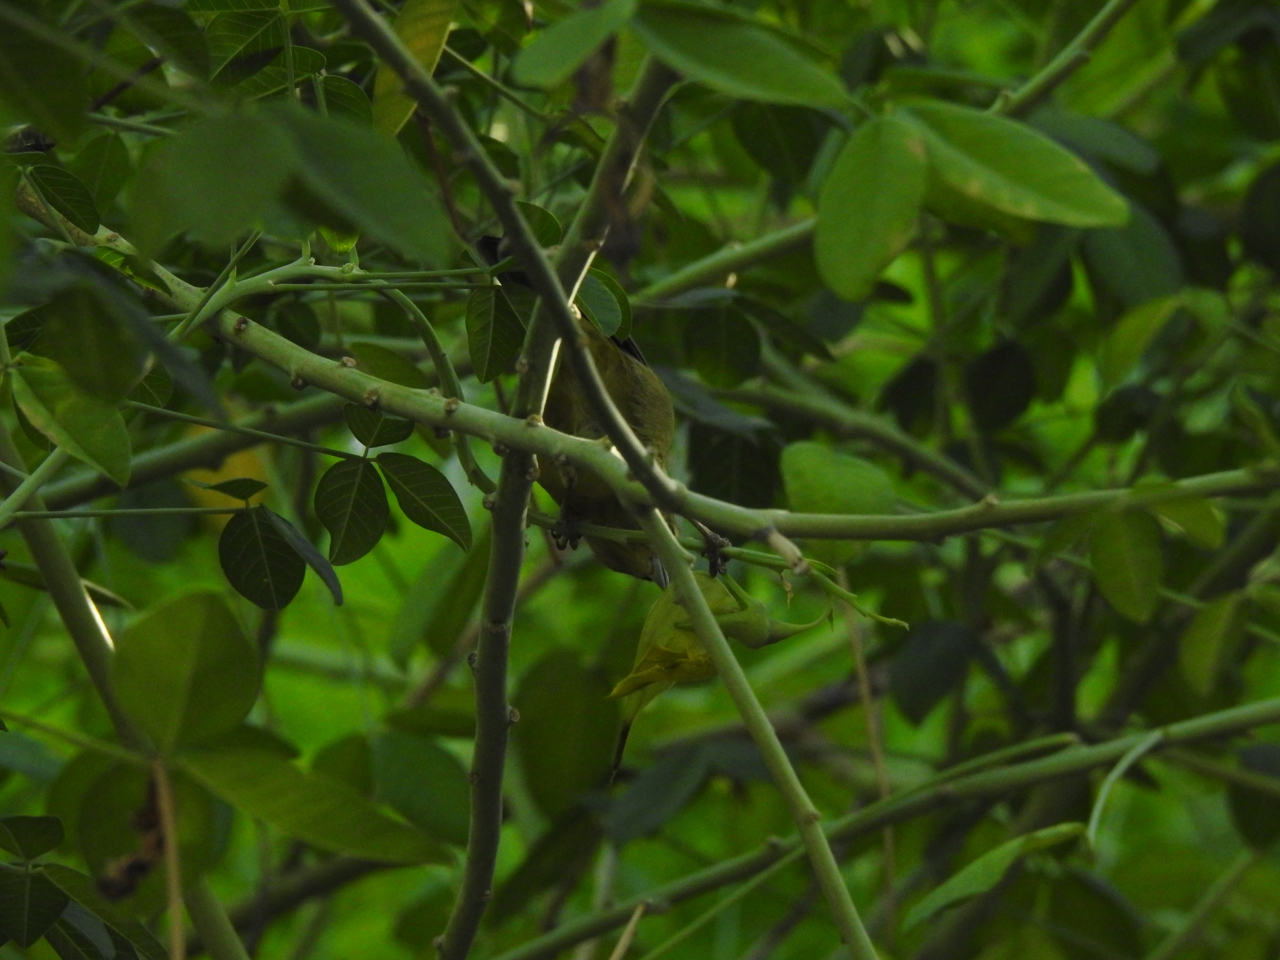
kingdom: Animalia
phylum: Chordata
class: Aves
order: Passeriformes
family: Parulidae
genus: Leiothlypis
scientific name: Leiothlypis celata
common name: Orange-crowned warbler
